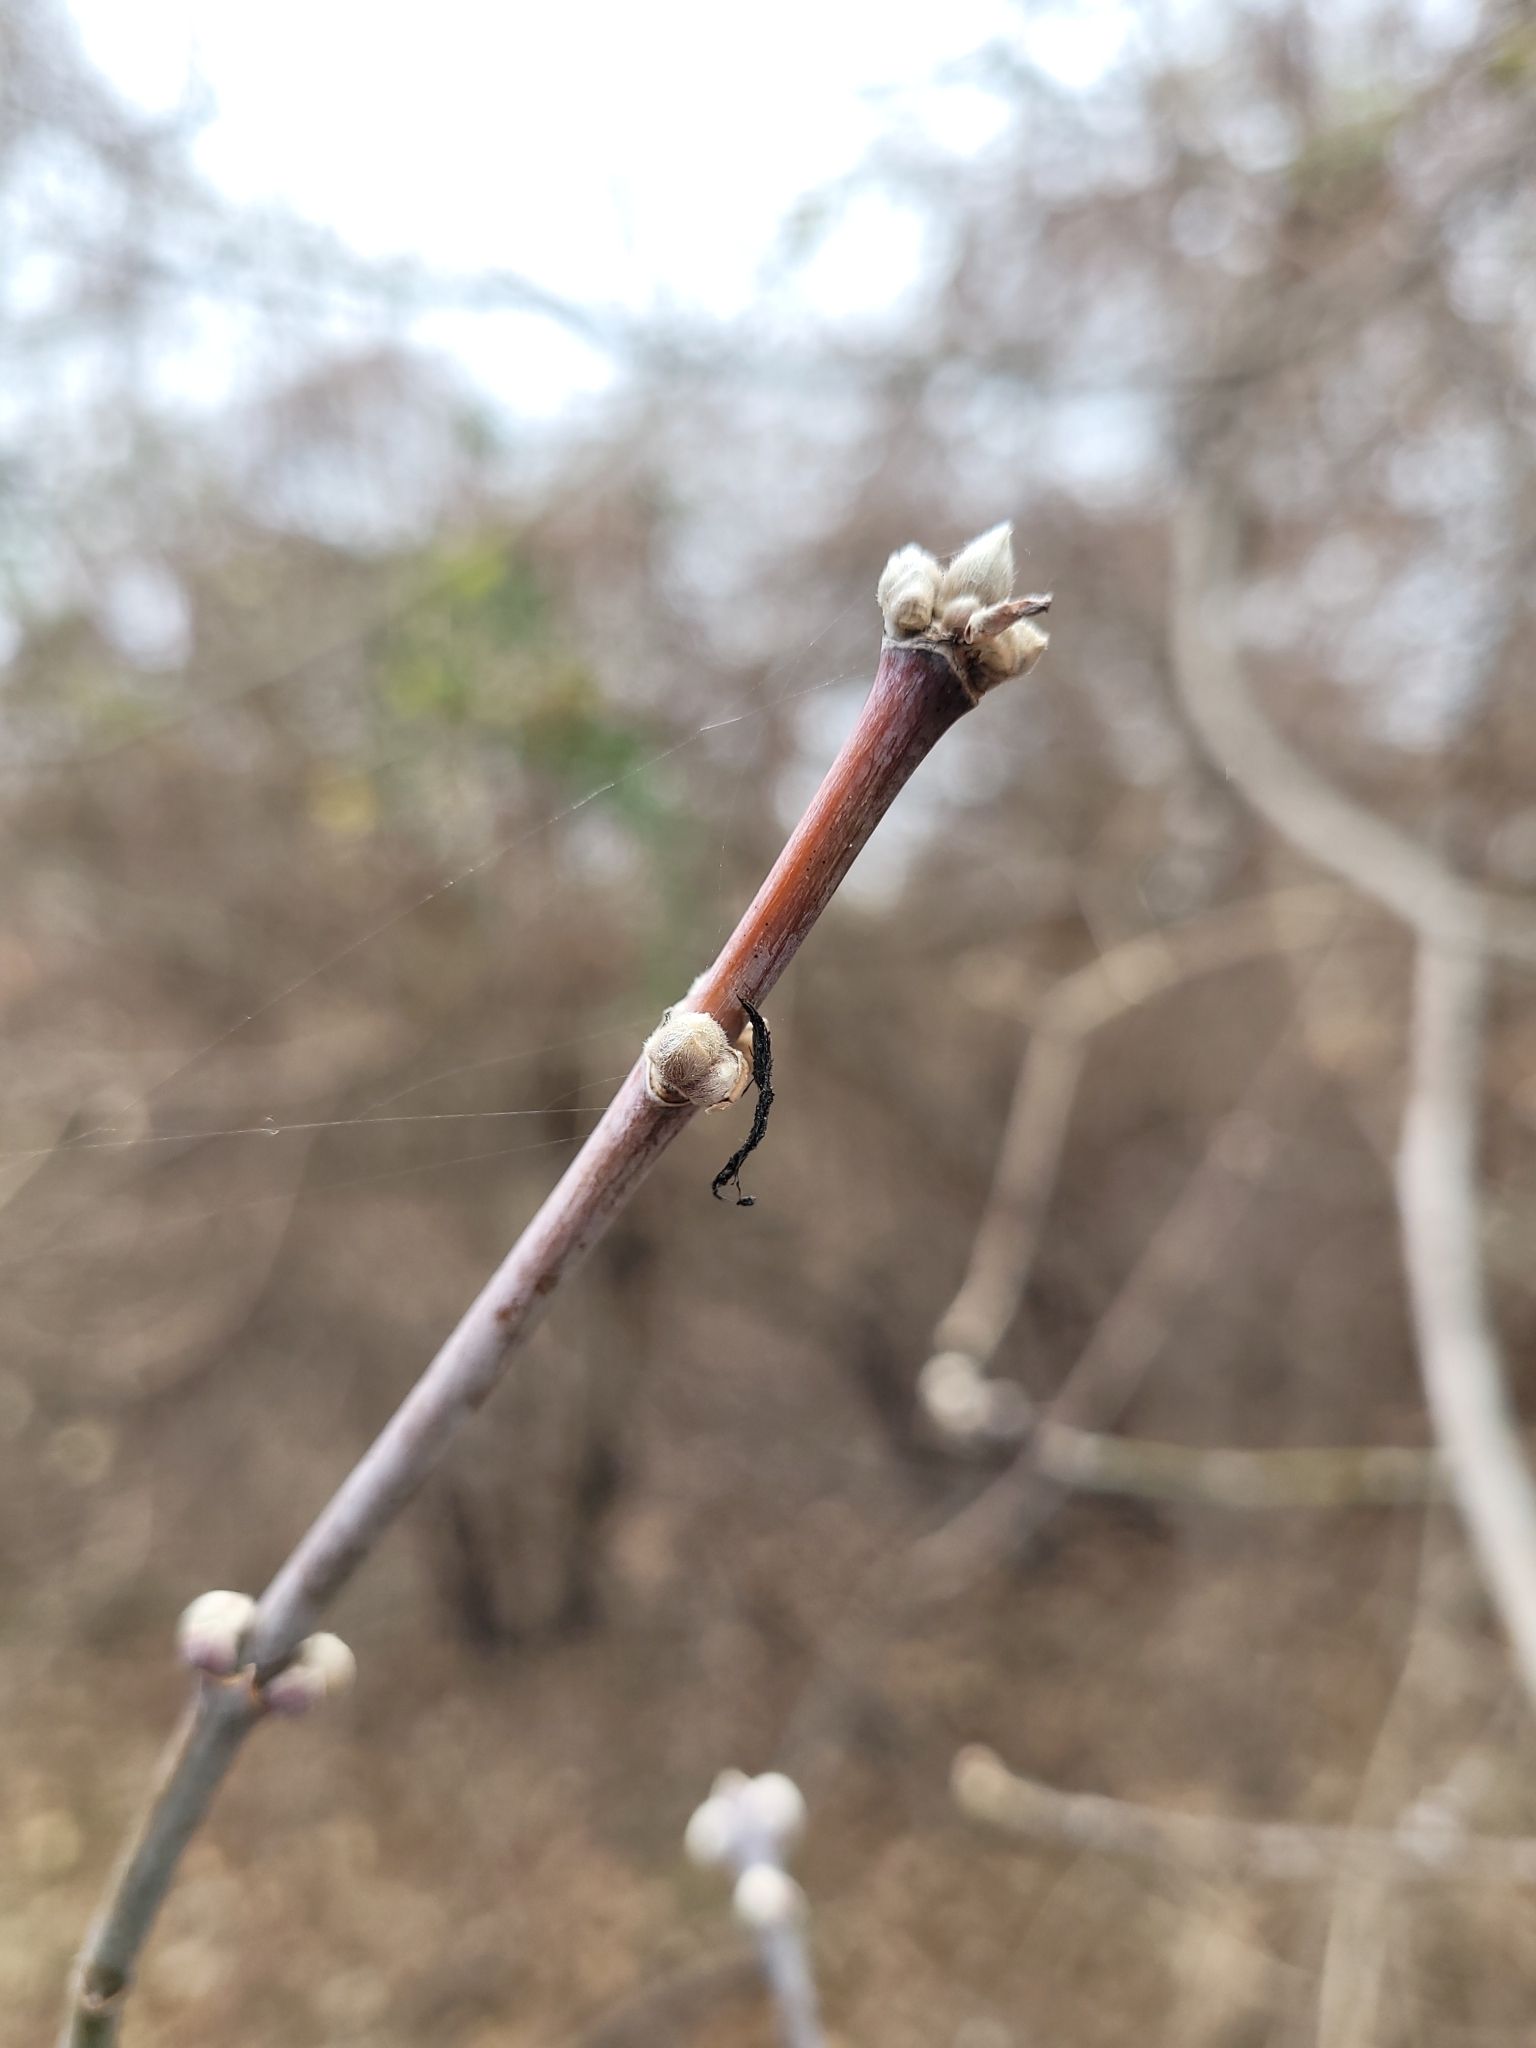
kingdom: Plantae
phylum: Tracheophyta
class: Magnoliopsida
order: Sapindales
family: Sapindaceae
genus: Acer
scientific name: Acer negundo
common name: Ashleaf maple
